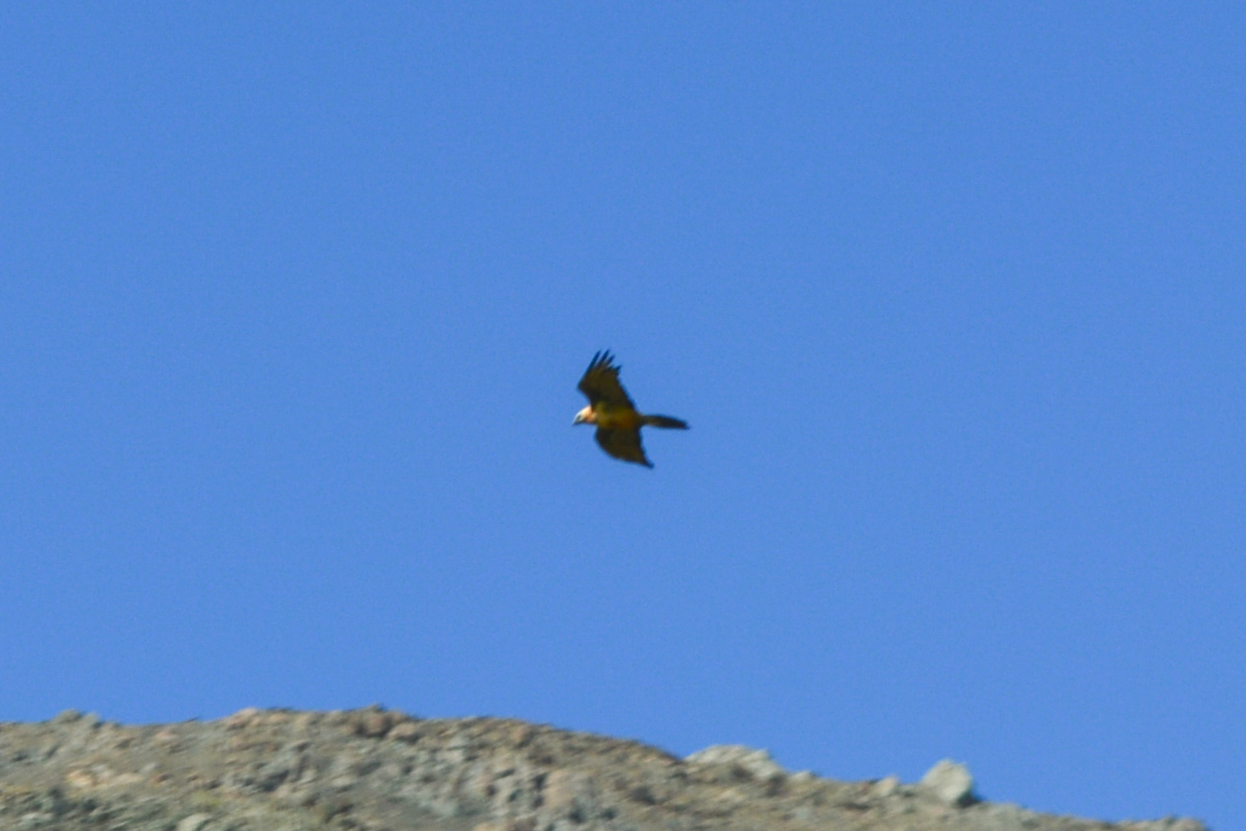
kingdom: Animalia
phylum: Chordata
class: Aves
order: Accipitriformes
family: Accipitridae
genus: Gypaetus
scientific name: Gypaetus barbatus
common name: Bearded vulture
